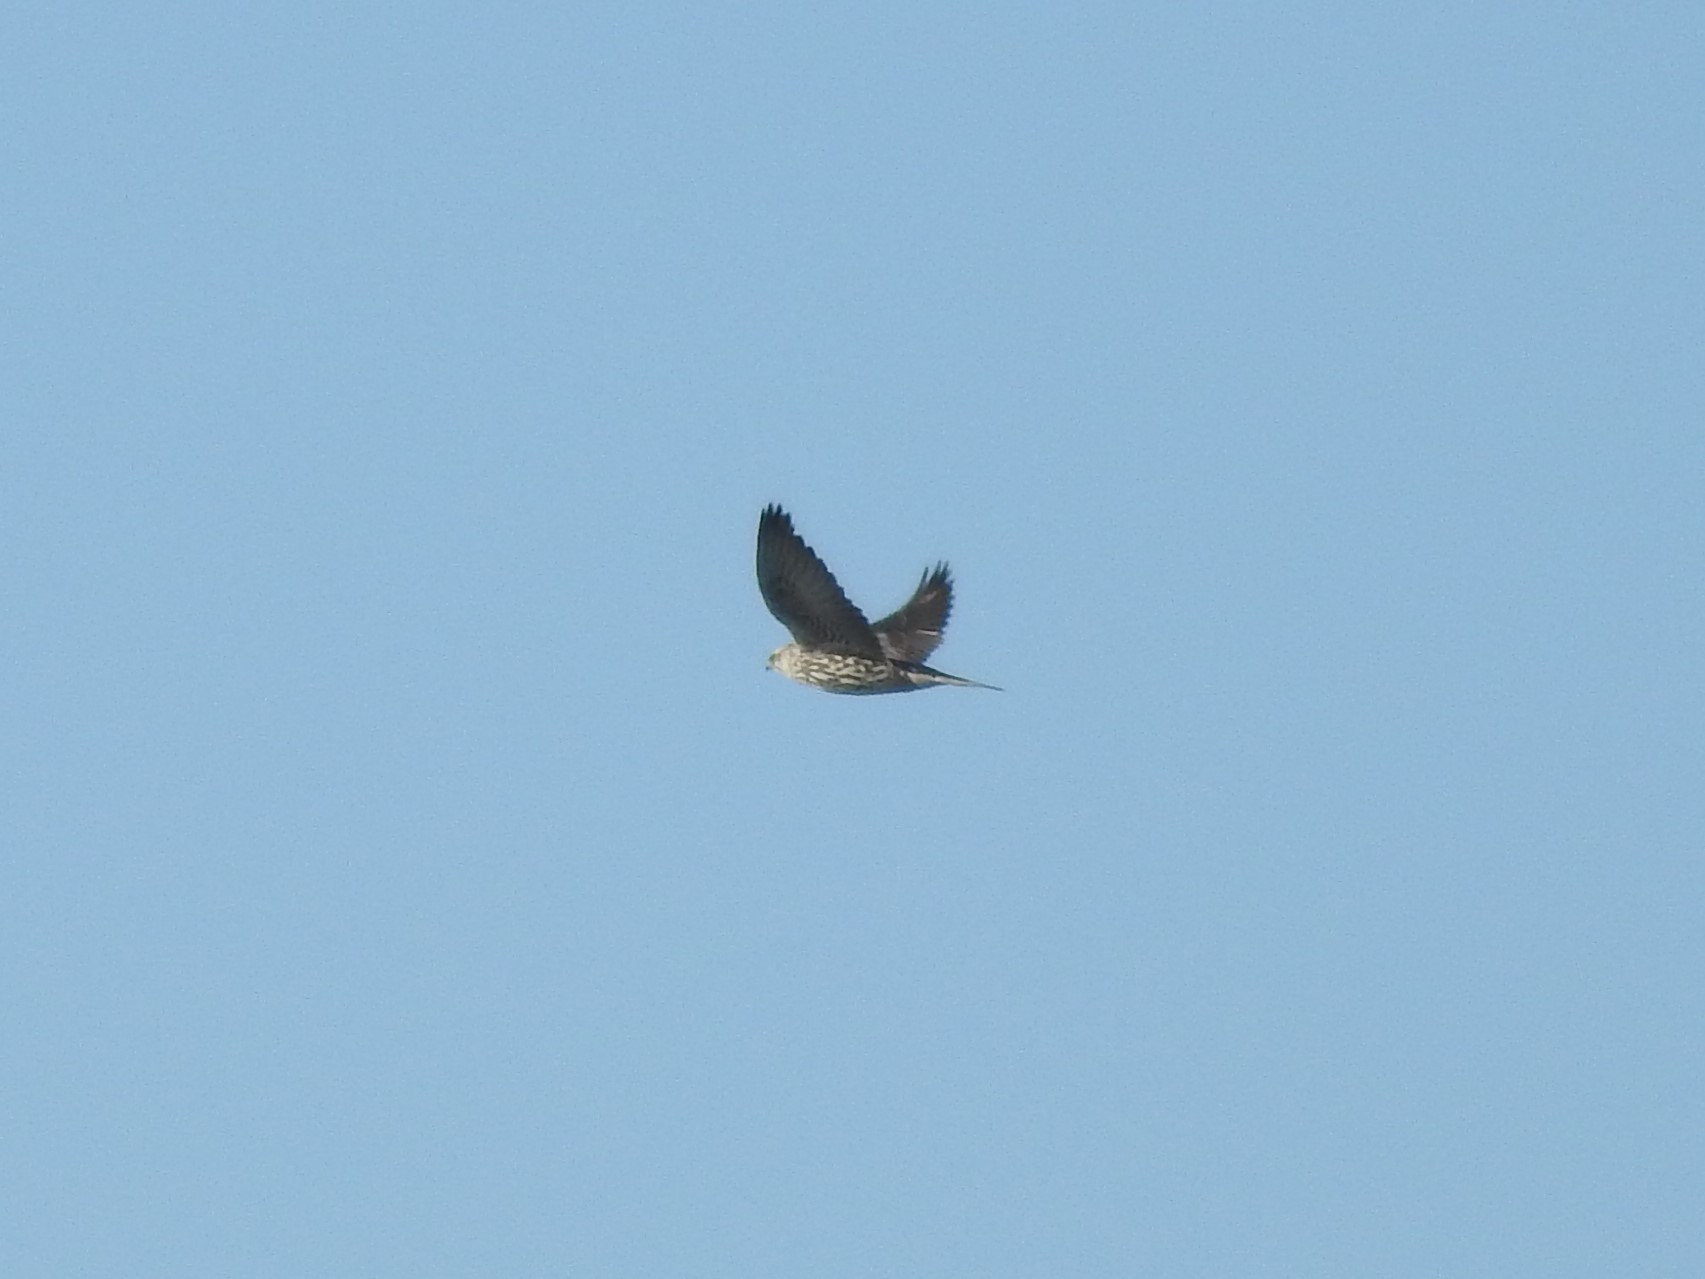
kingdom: Animalia
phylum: Chordata
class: Aves
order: Falconiformes
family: Falconidae
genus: Falco
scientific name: Falco rusticolus
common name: Gyrfalcon
